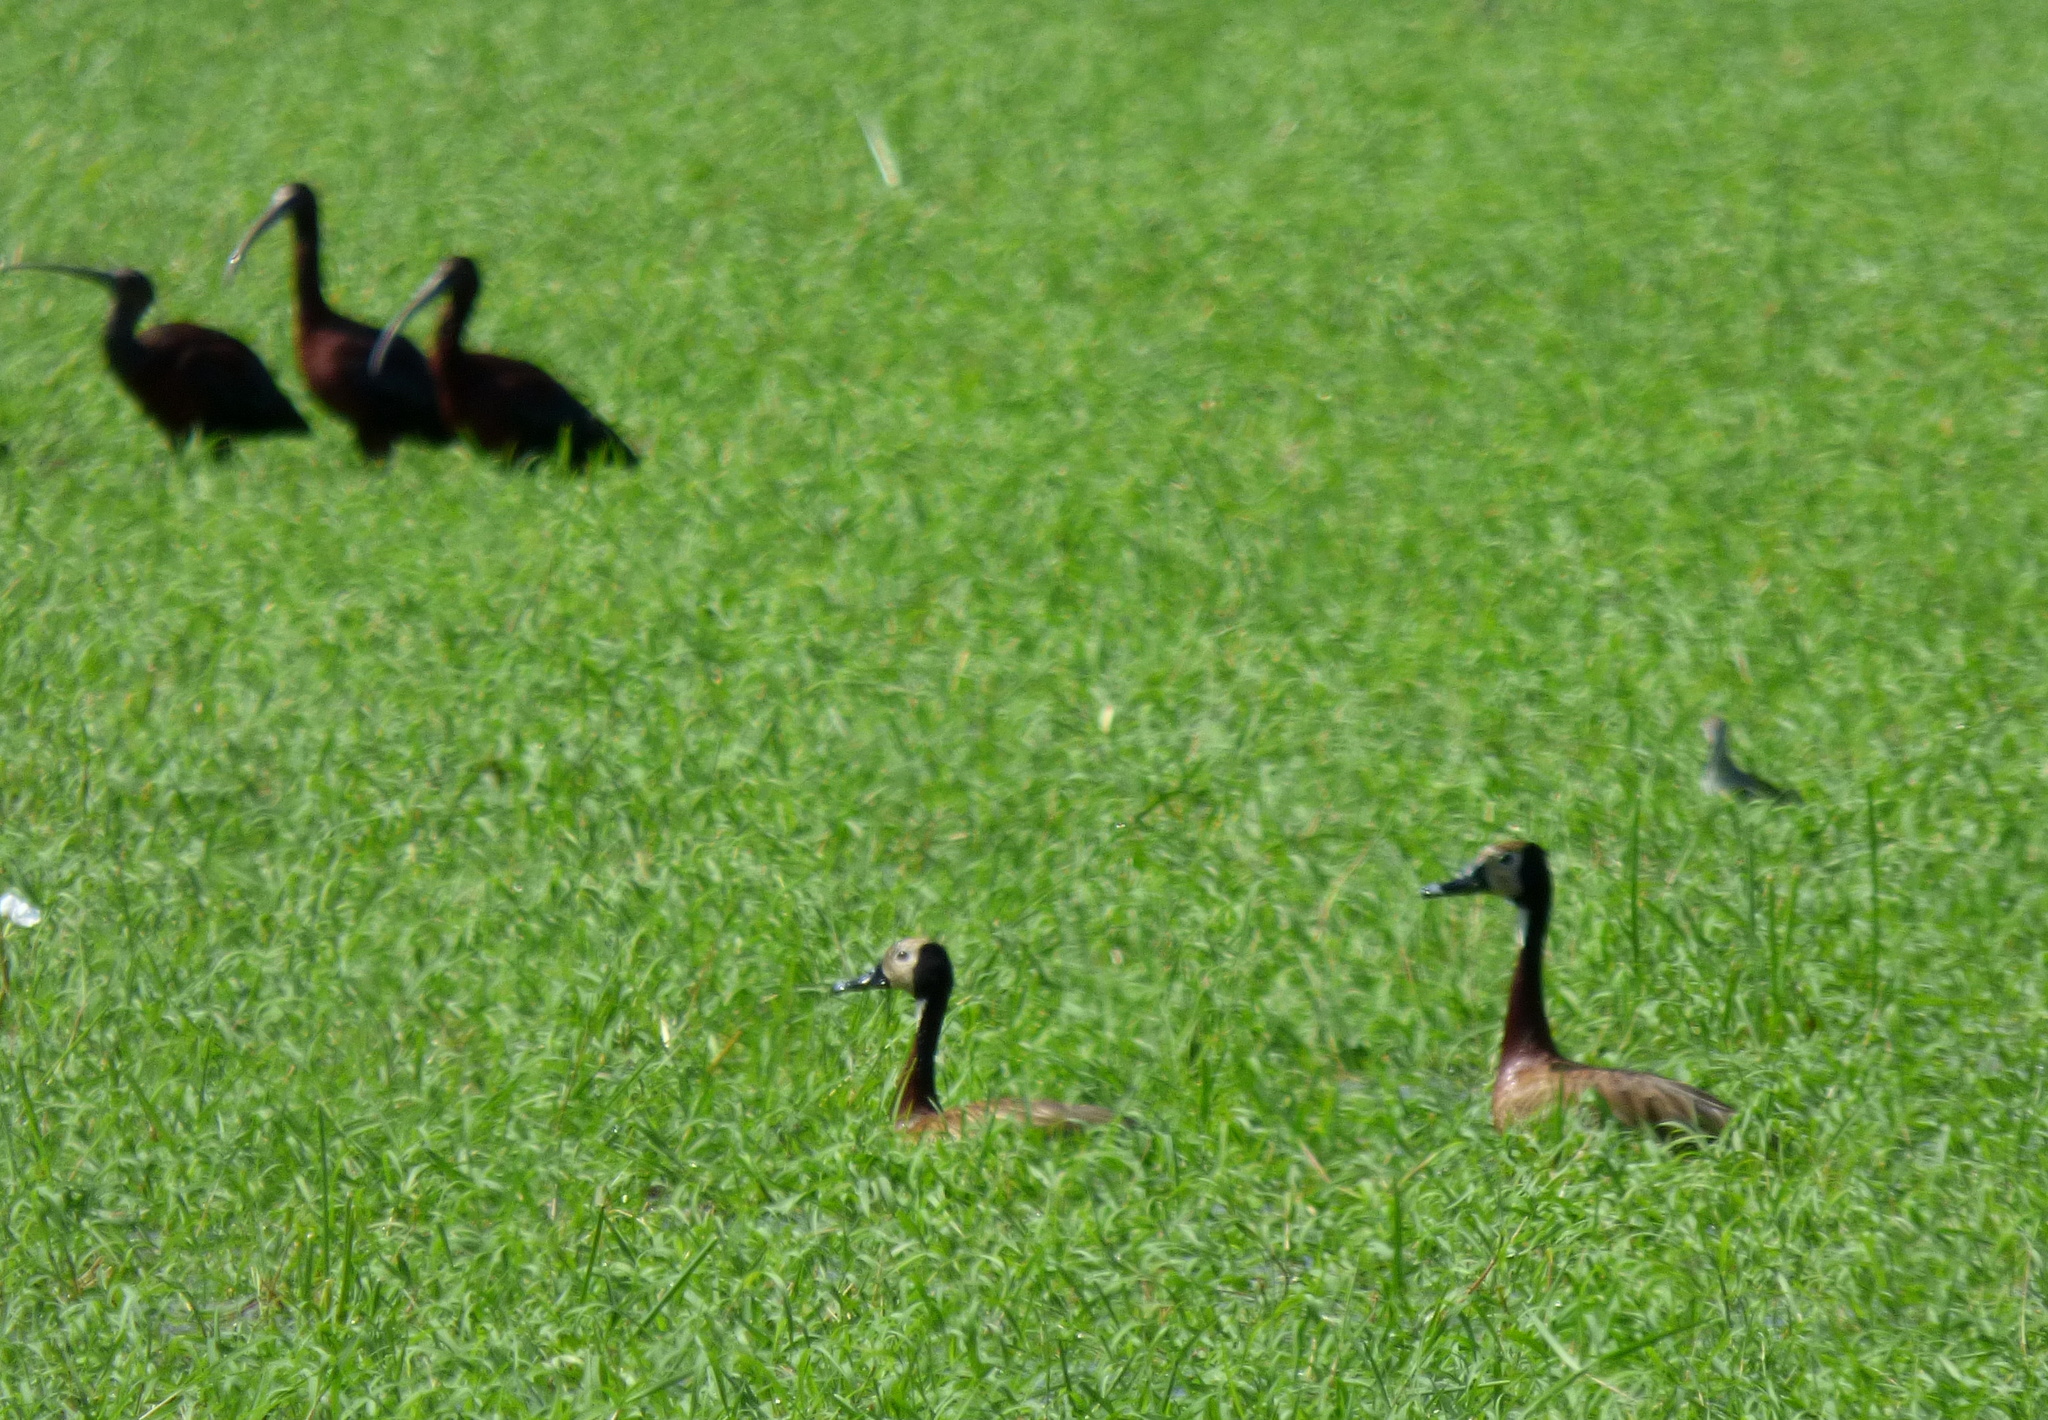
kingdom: Animalia
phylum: Chordata
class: Aves
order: Anseriformes
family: Anatidae
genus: Dendrocygna
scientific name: Dendrocygna viduata
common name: White-faced whistling duck
